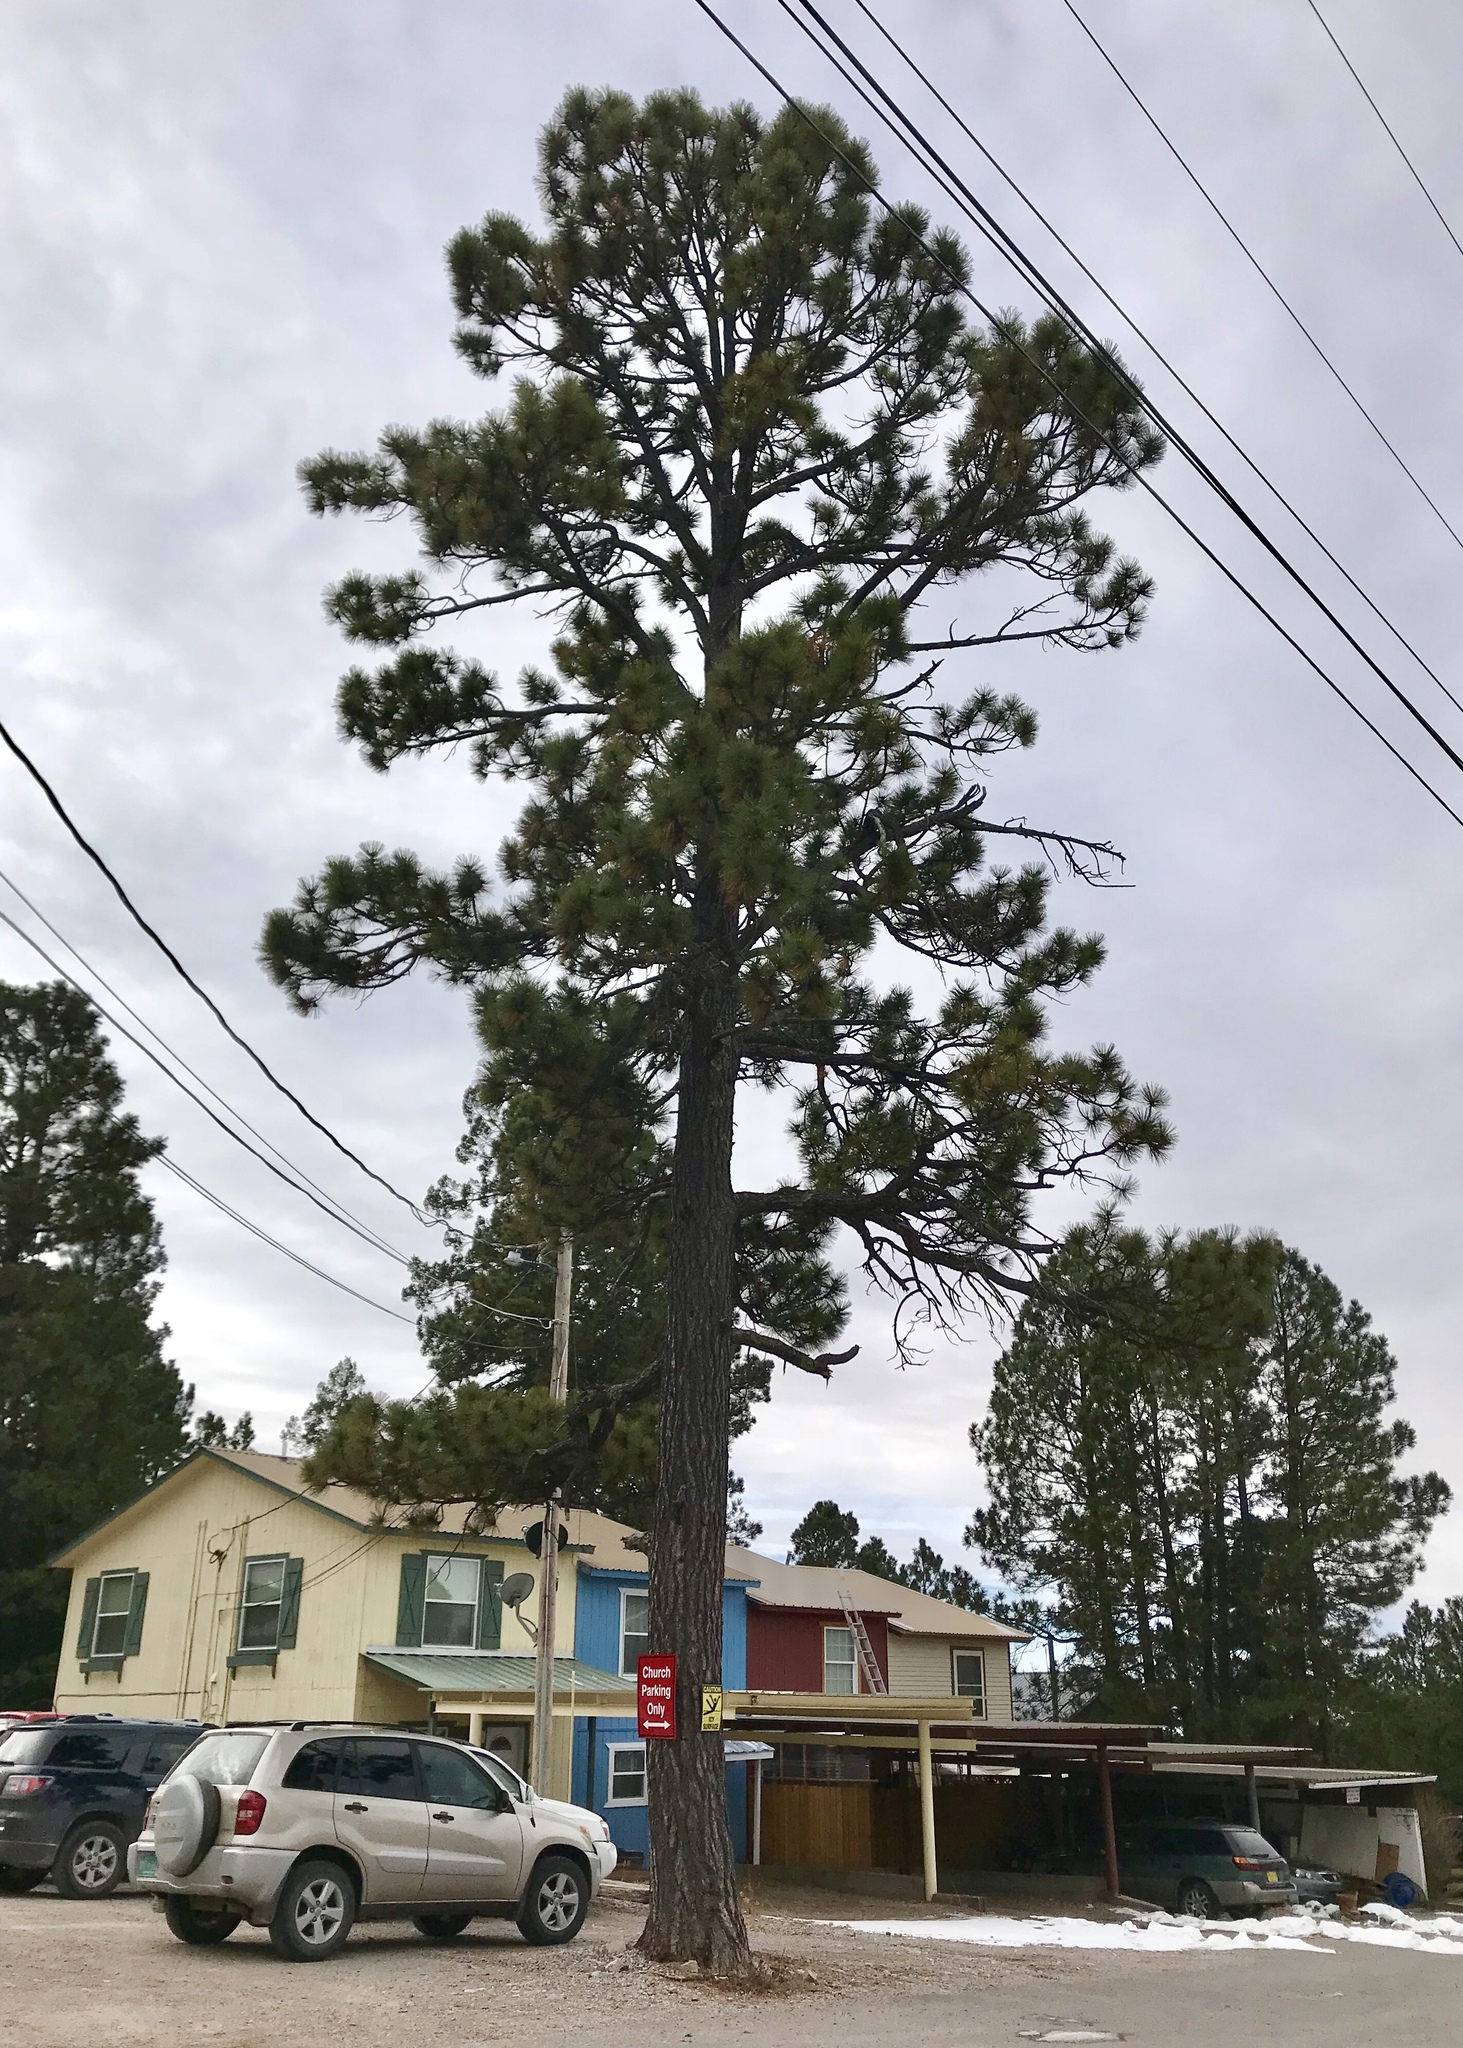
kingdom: Plantae
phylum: Tracheophyta
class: Pinopsida
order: Pinales
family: Pinaceae
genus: Pinus
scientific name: Pinus ponderosa
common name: Western yellow-pine
